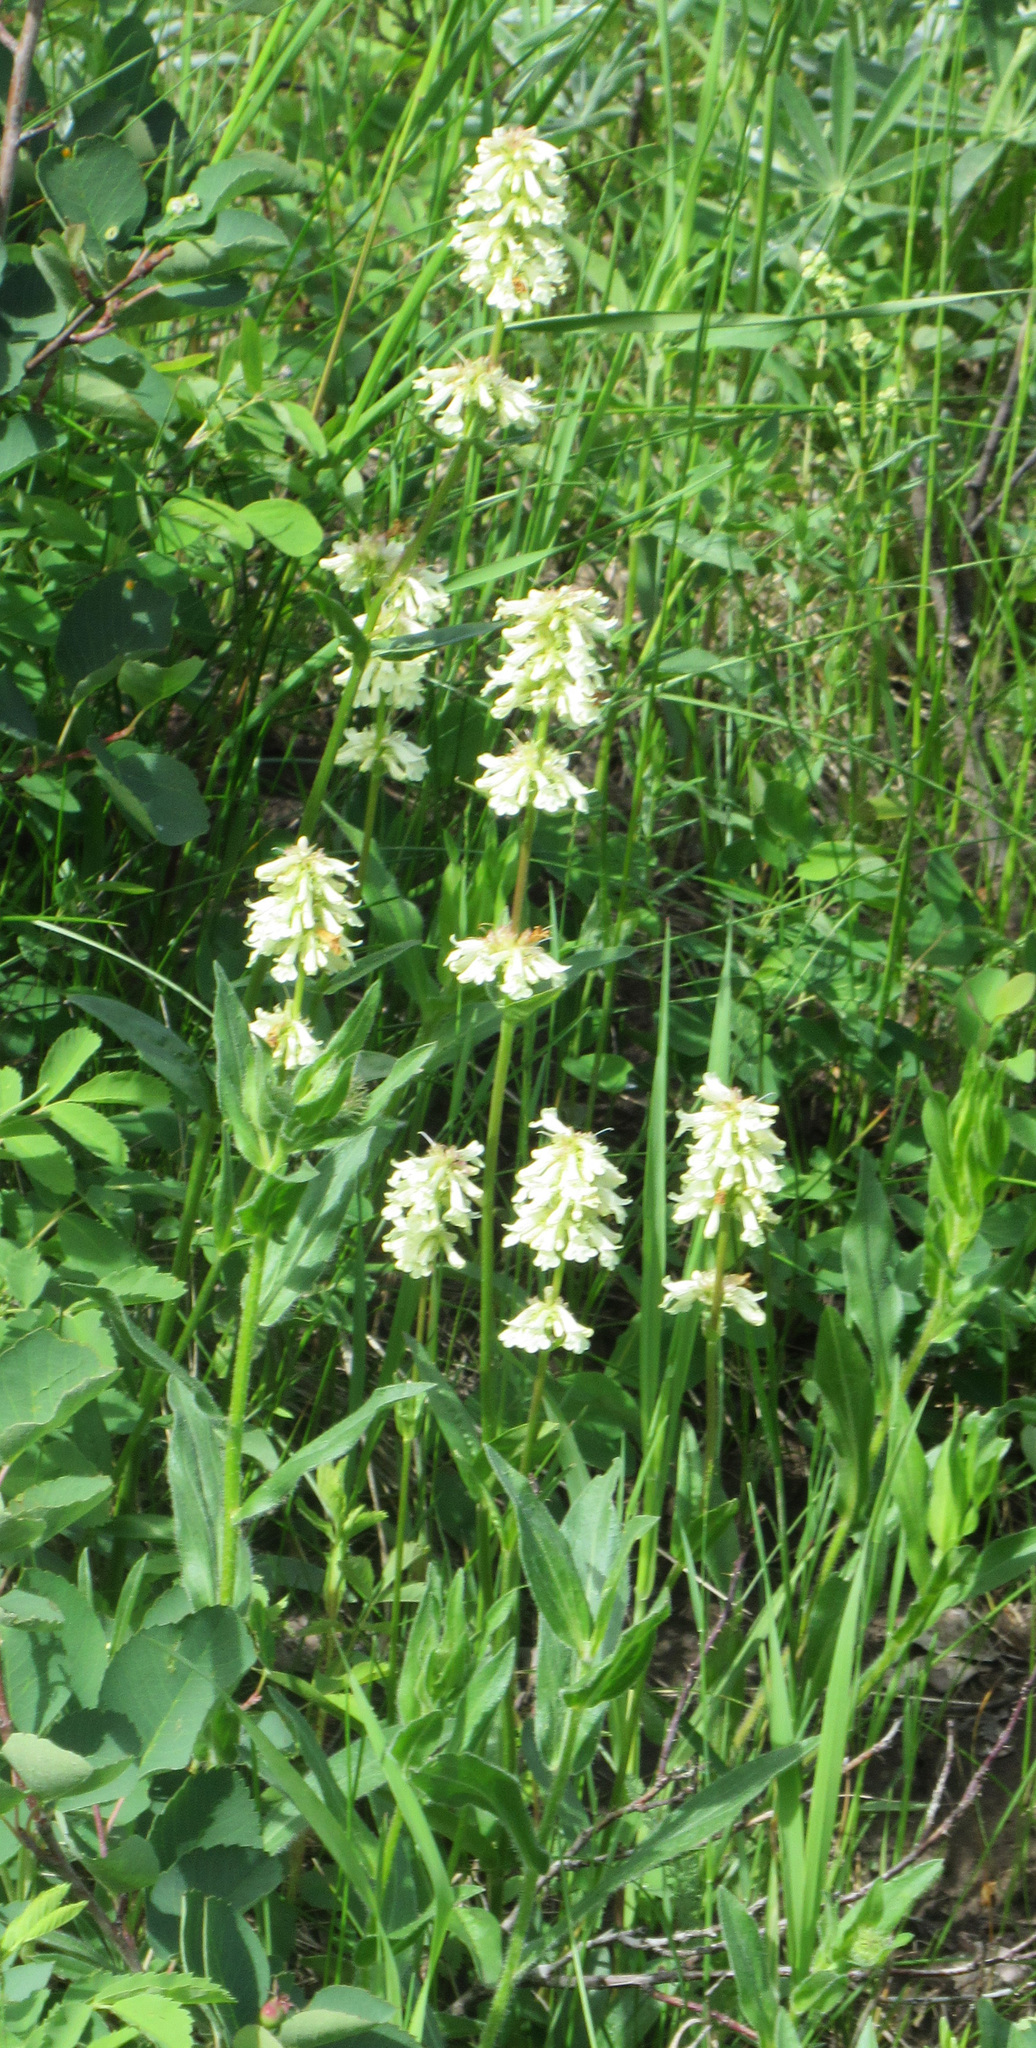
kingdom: Plantae
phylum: Tracheophyta
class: Magnoliopsida
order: Lamiales
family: Plantaginaceae
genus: Penstemon
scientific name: Penstemon confertus
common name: Lesser yellow beardtongue
